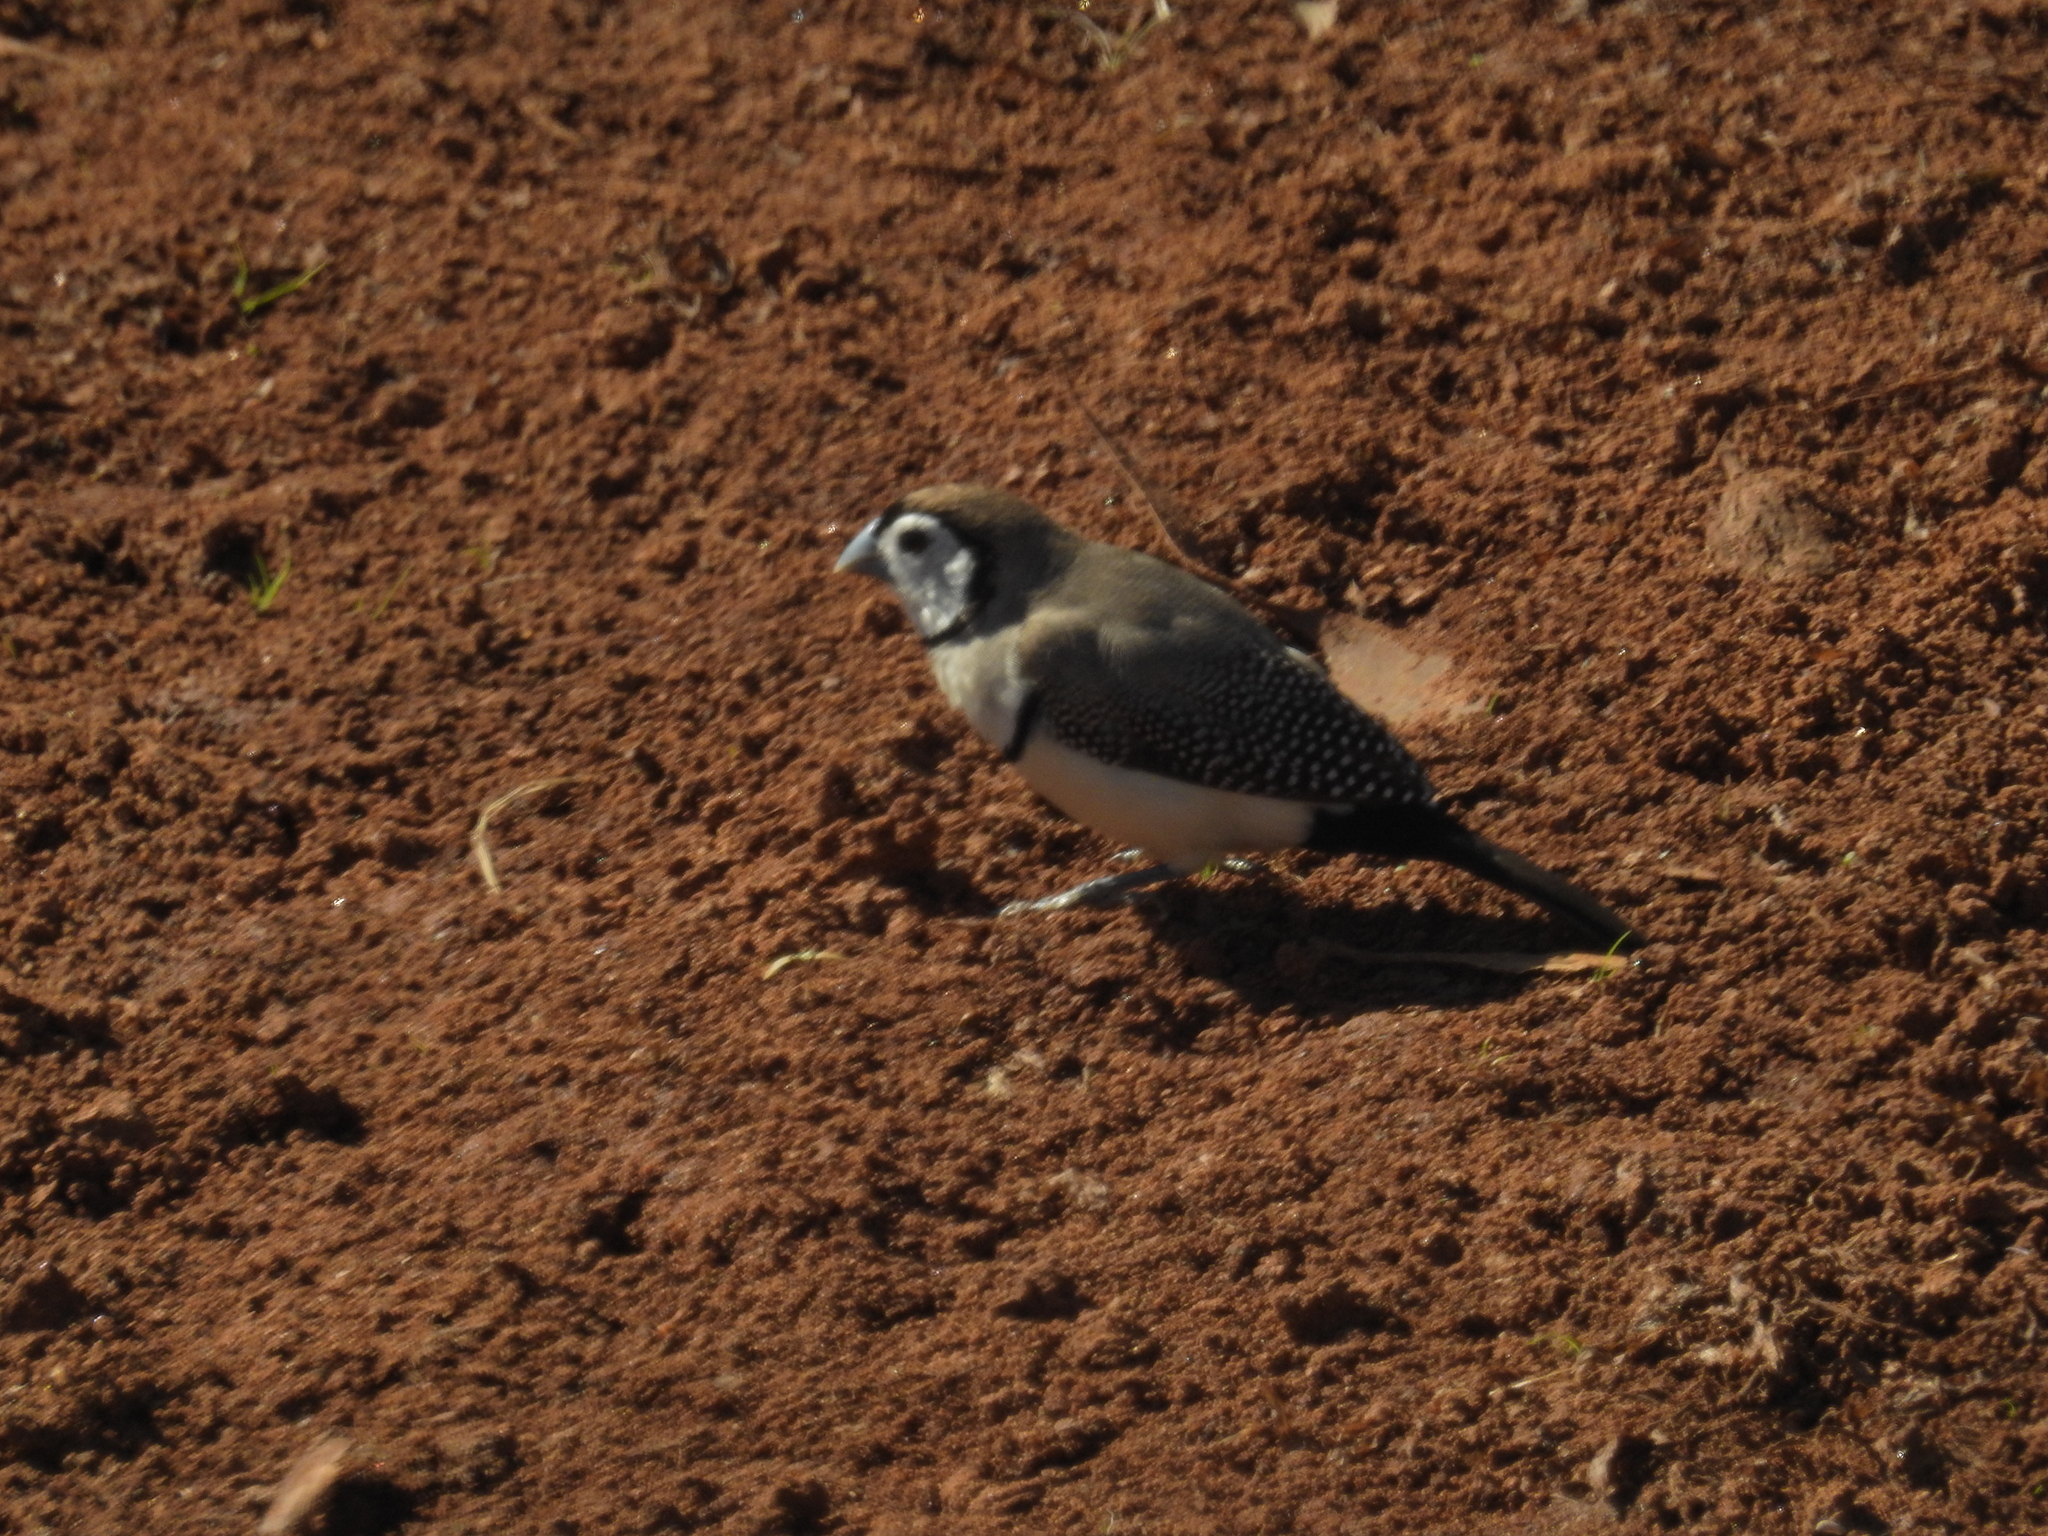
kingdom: Animalia
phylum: Chordata
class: Aves
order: Passeriformes
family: Estrildidae
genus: Taeniopygia
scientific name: Taeniopygia bichenovii
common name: Double-barred finch
